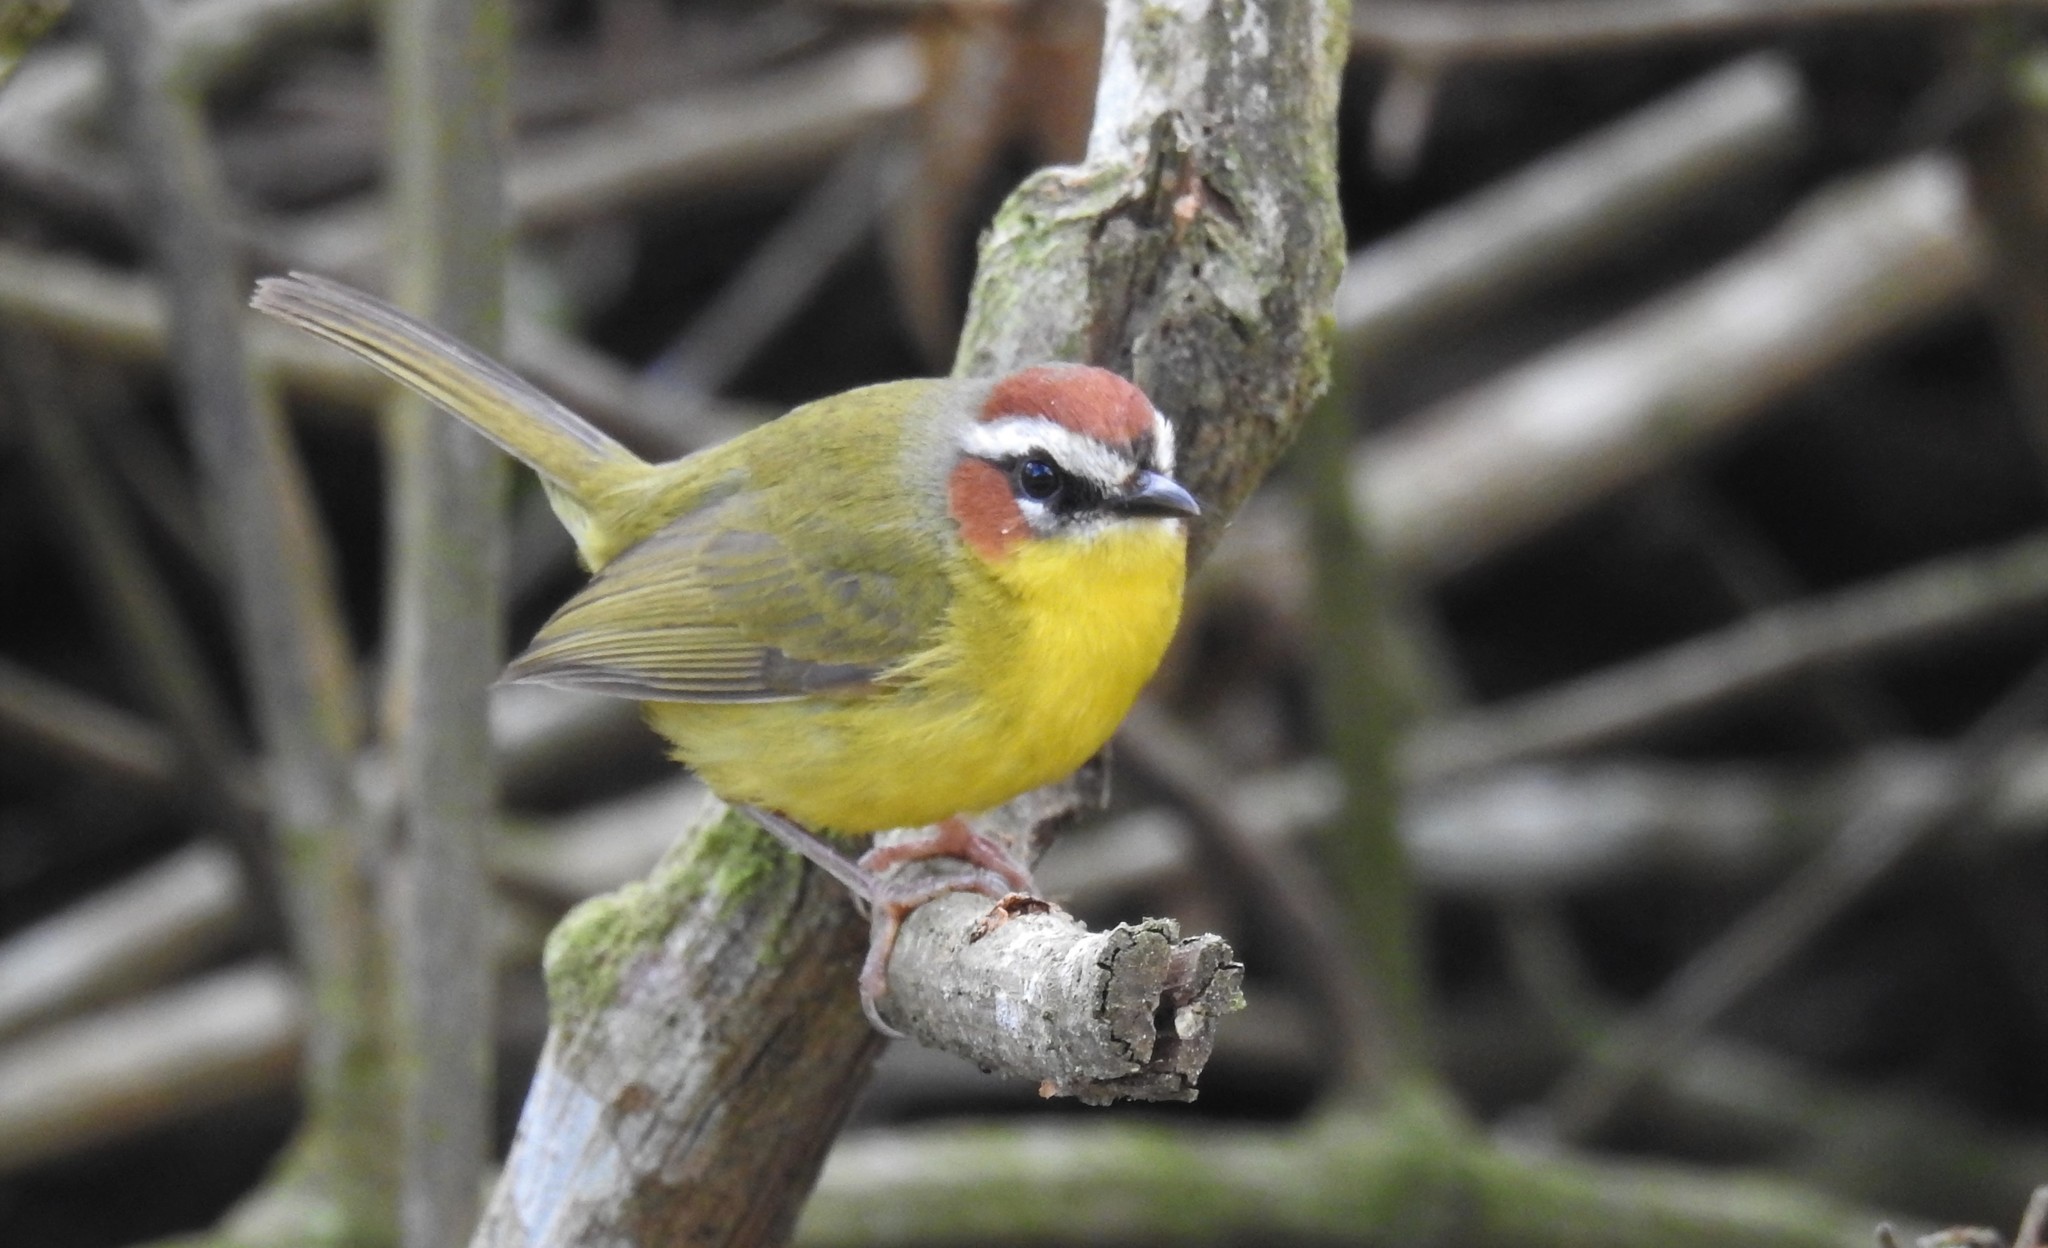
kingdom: Animalia
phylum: Chordata
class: Aves
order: Passeriformes
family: Parulidae
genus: Basileuterus
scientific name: Basileuterus rufifrons
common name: Rufous-capped warbler
